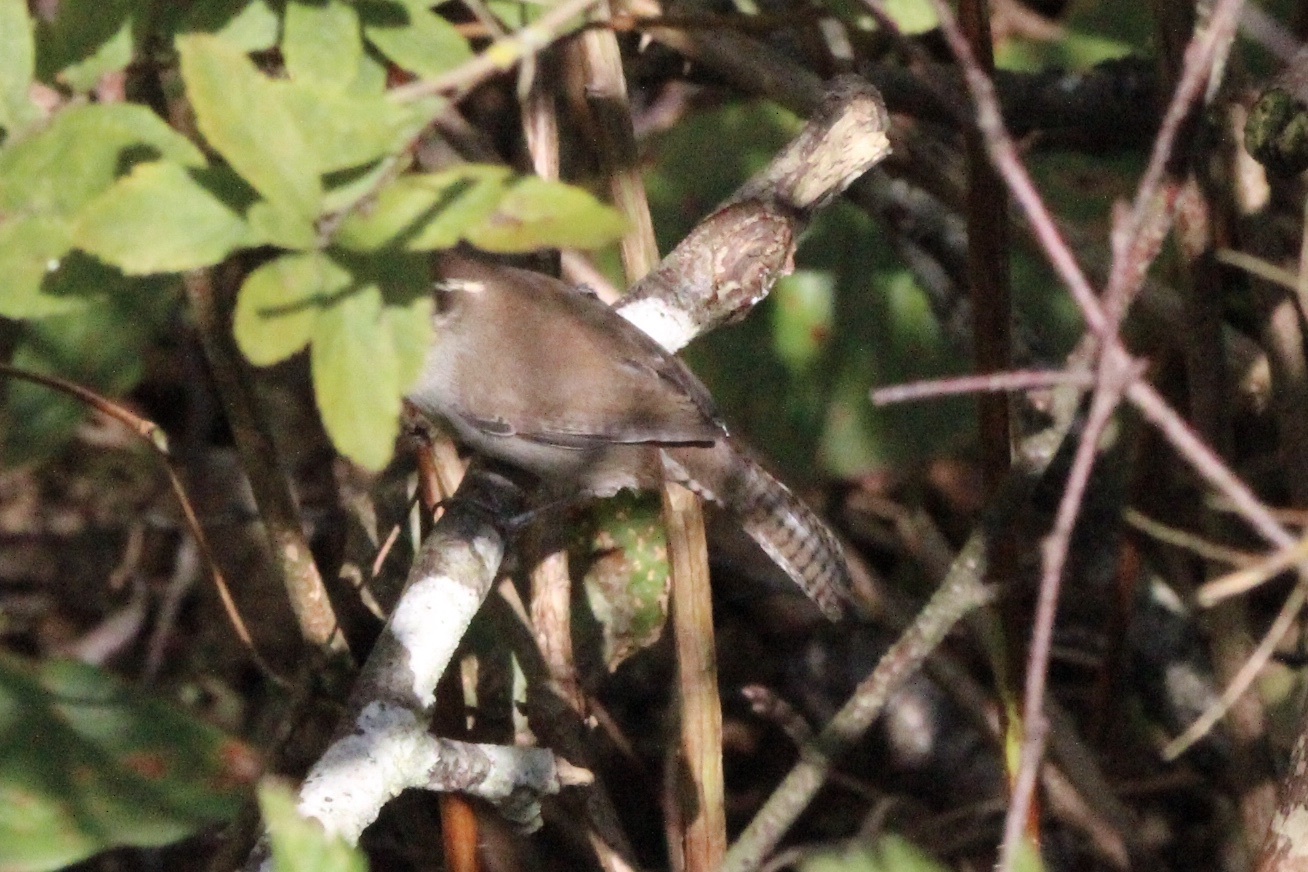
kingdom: Animalia
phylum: Chordata
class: Aves
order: Passeriformes
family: Troglodytidae
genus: Thryomanes
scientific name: Thryomanes bewickii
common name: Bewick's wren
